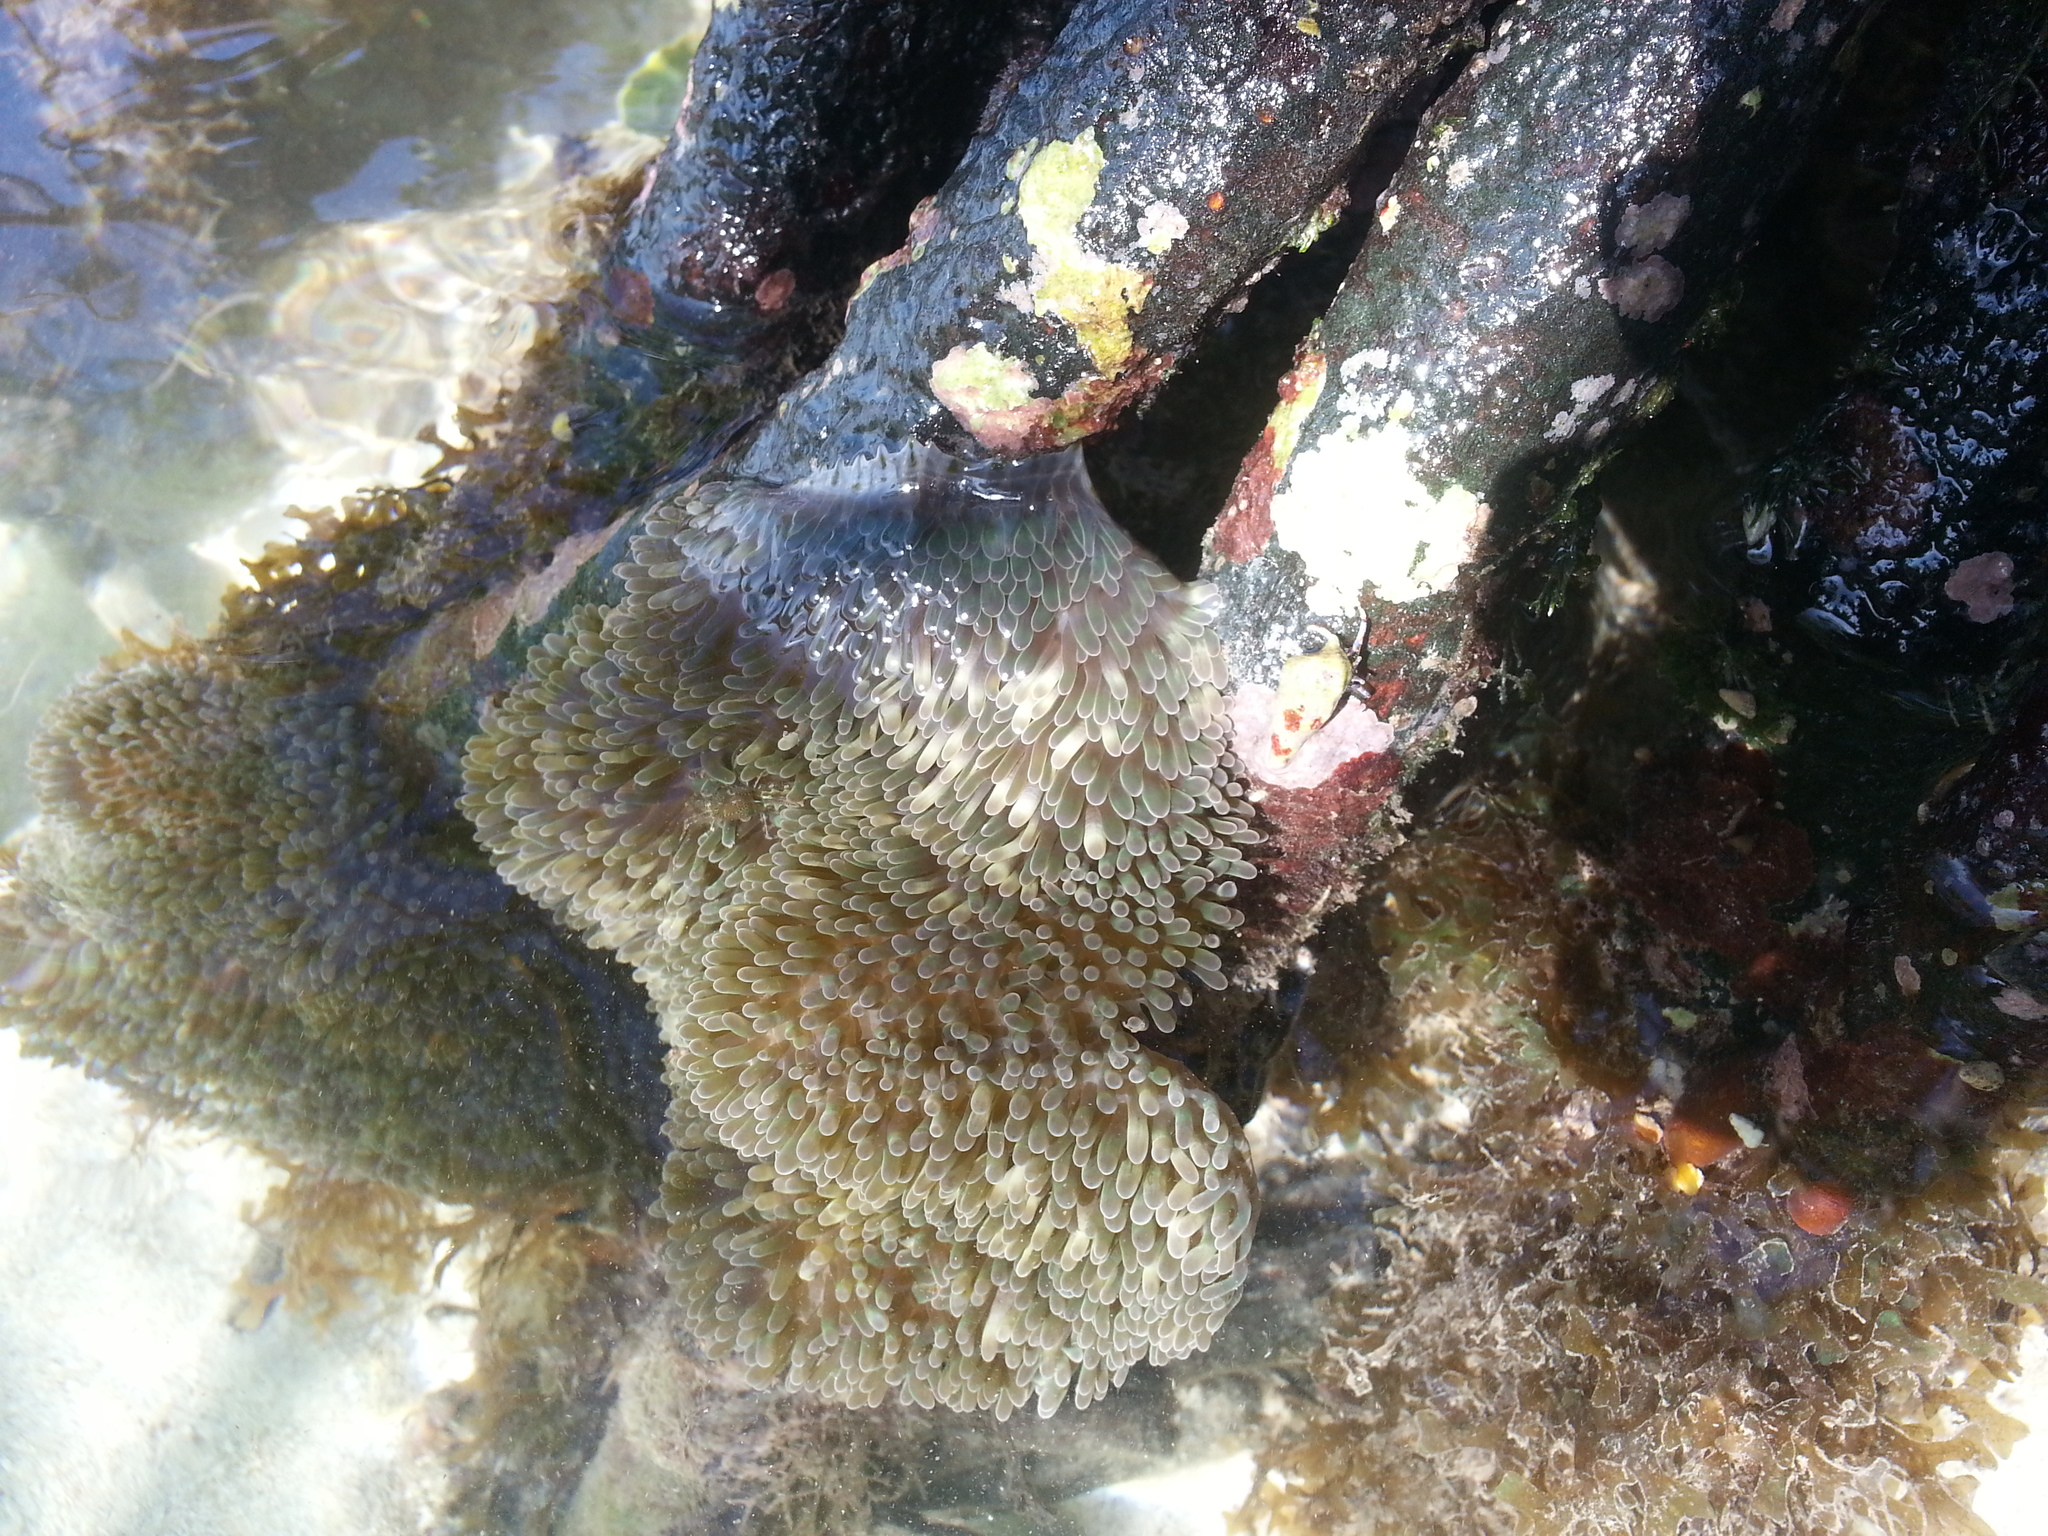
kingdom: Animalia
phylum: Cnidaria
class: Anthozoa
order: Actiniaria
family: Stichodactylidae
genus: Stichodactyla
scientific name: Stichodactyla helianthus
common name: Sun anemone
